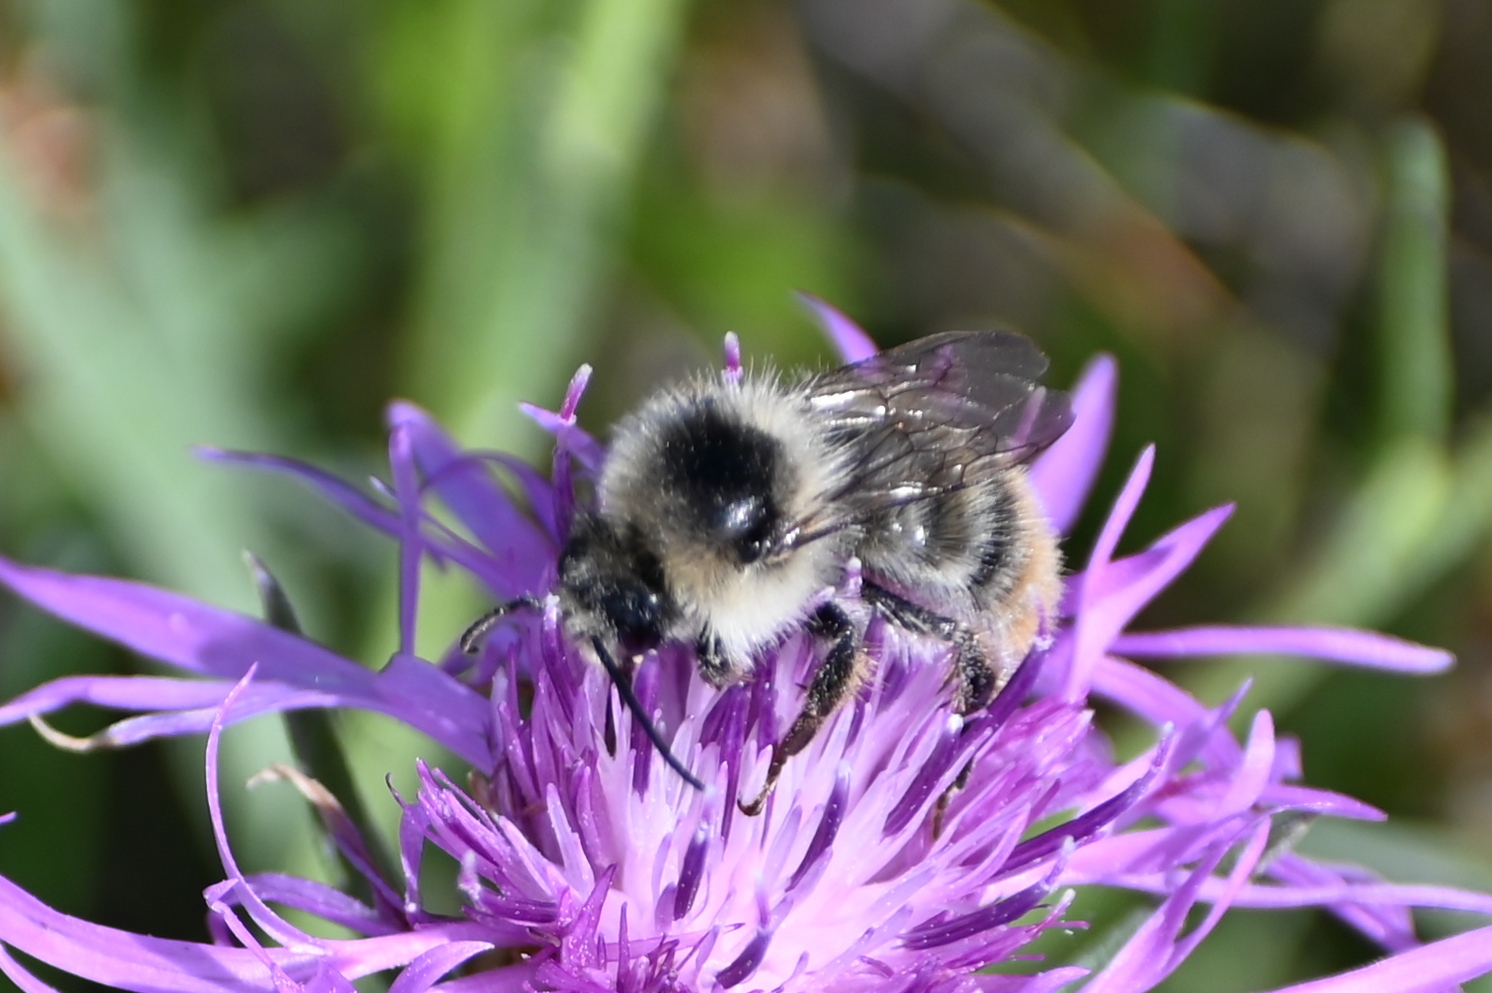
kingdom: Animalia
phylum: Arthropoda
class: Insecta
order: Hymenoptera
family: Apidae
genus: Bombus
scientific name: Bombus sylvarum
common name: Shrill carder bee
